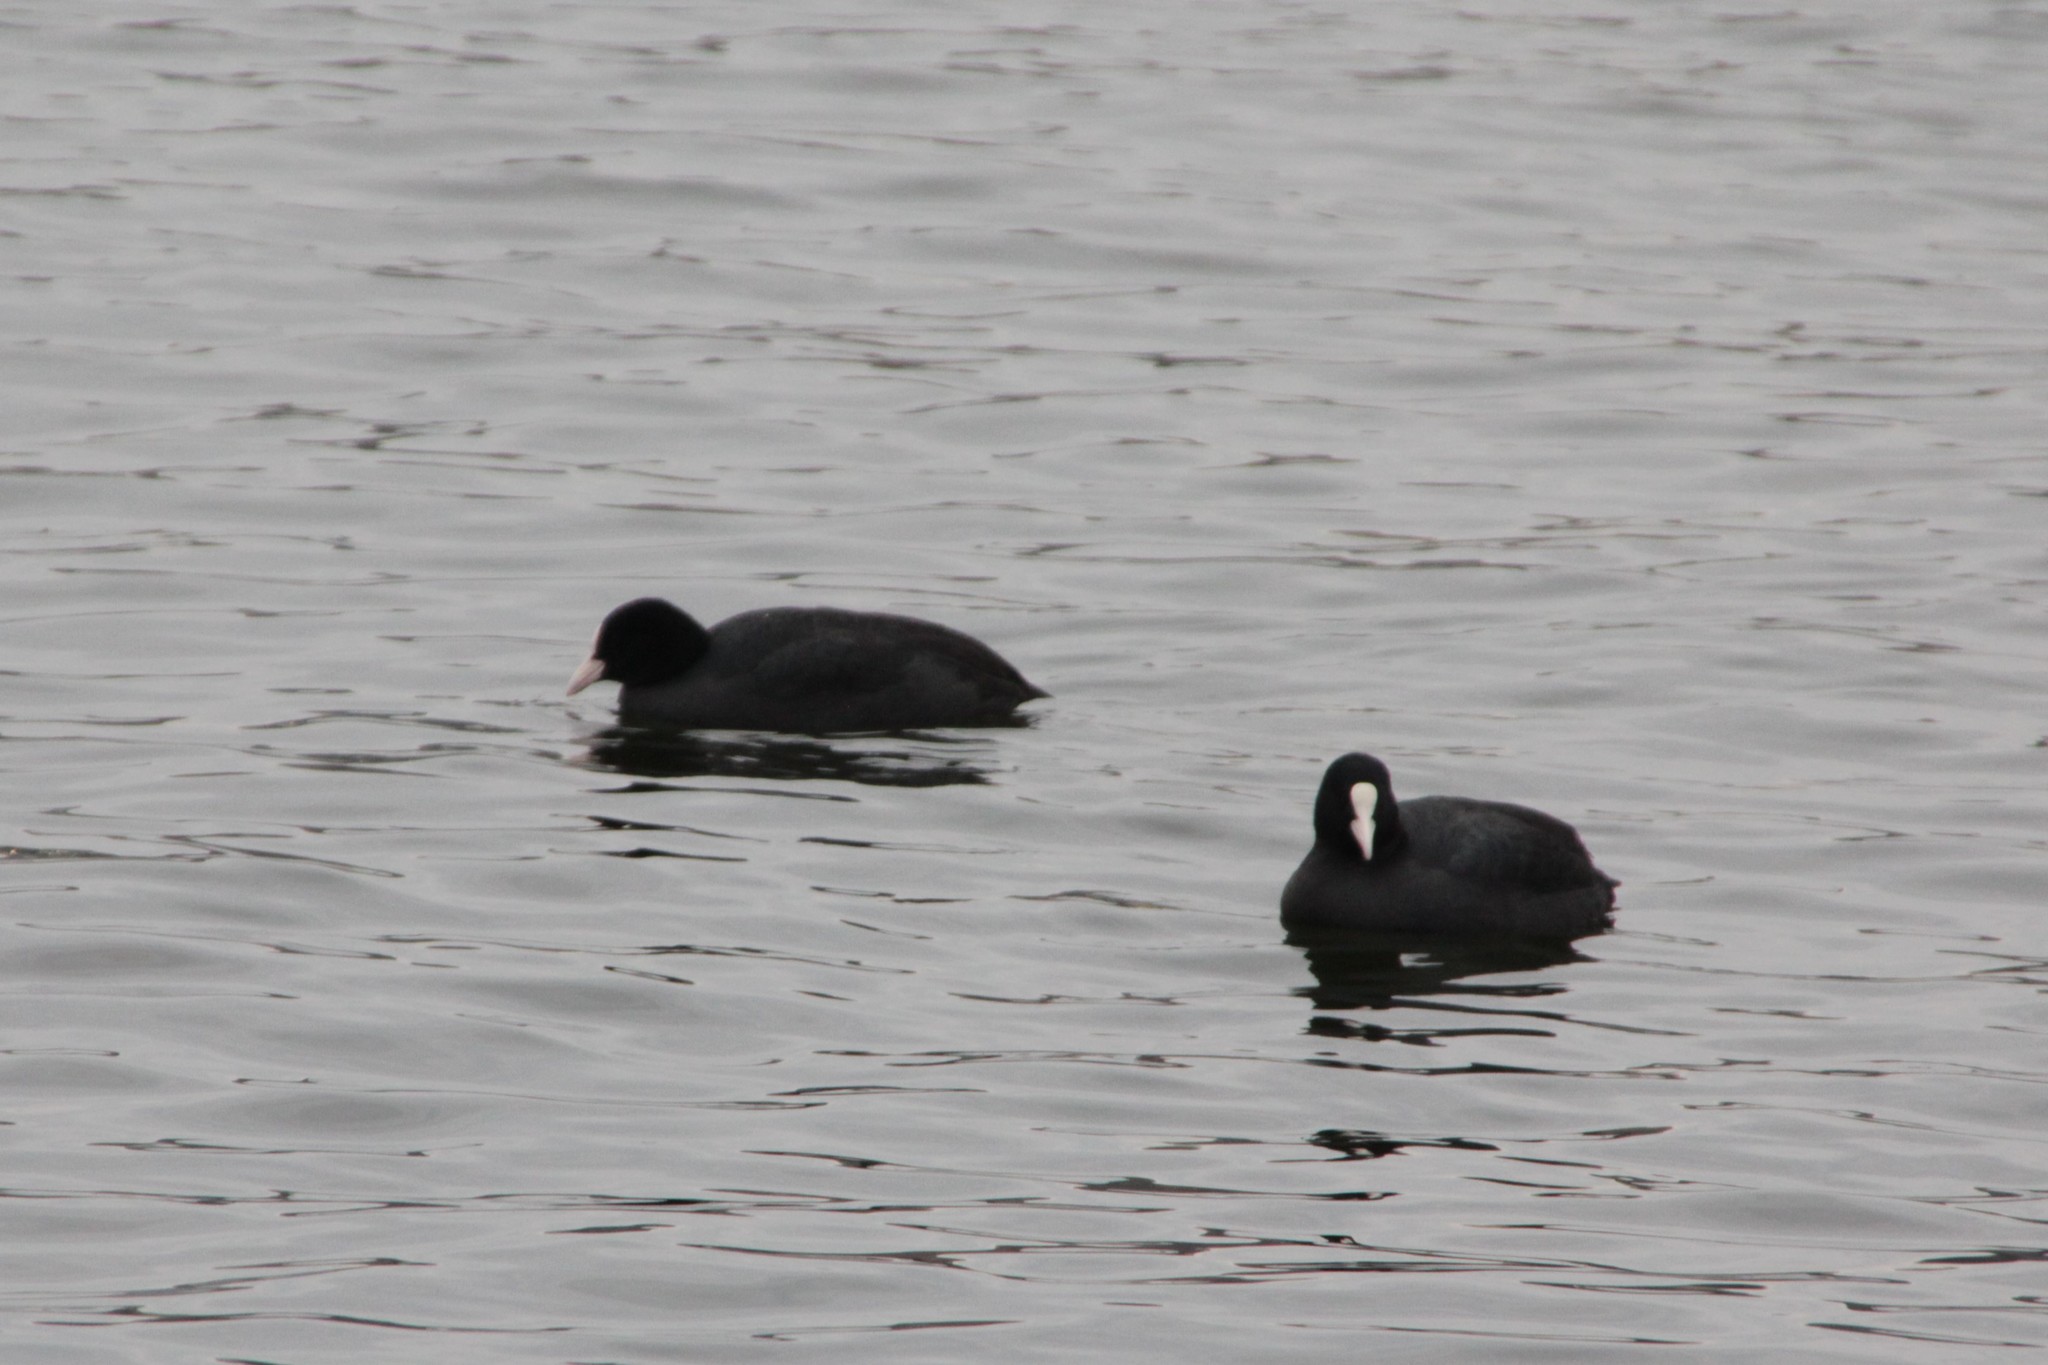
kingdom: Animalia
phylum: Chordata
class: Aves
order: Gruiformes
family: Rallidae
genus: Fulica
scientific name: Fulica atra
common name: Eurasian coot
